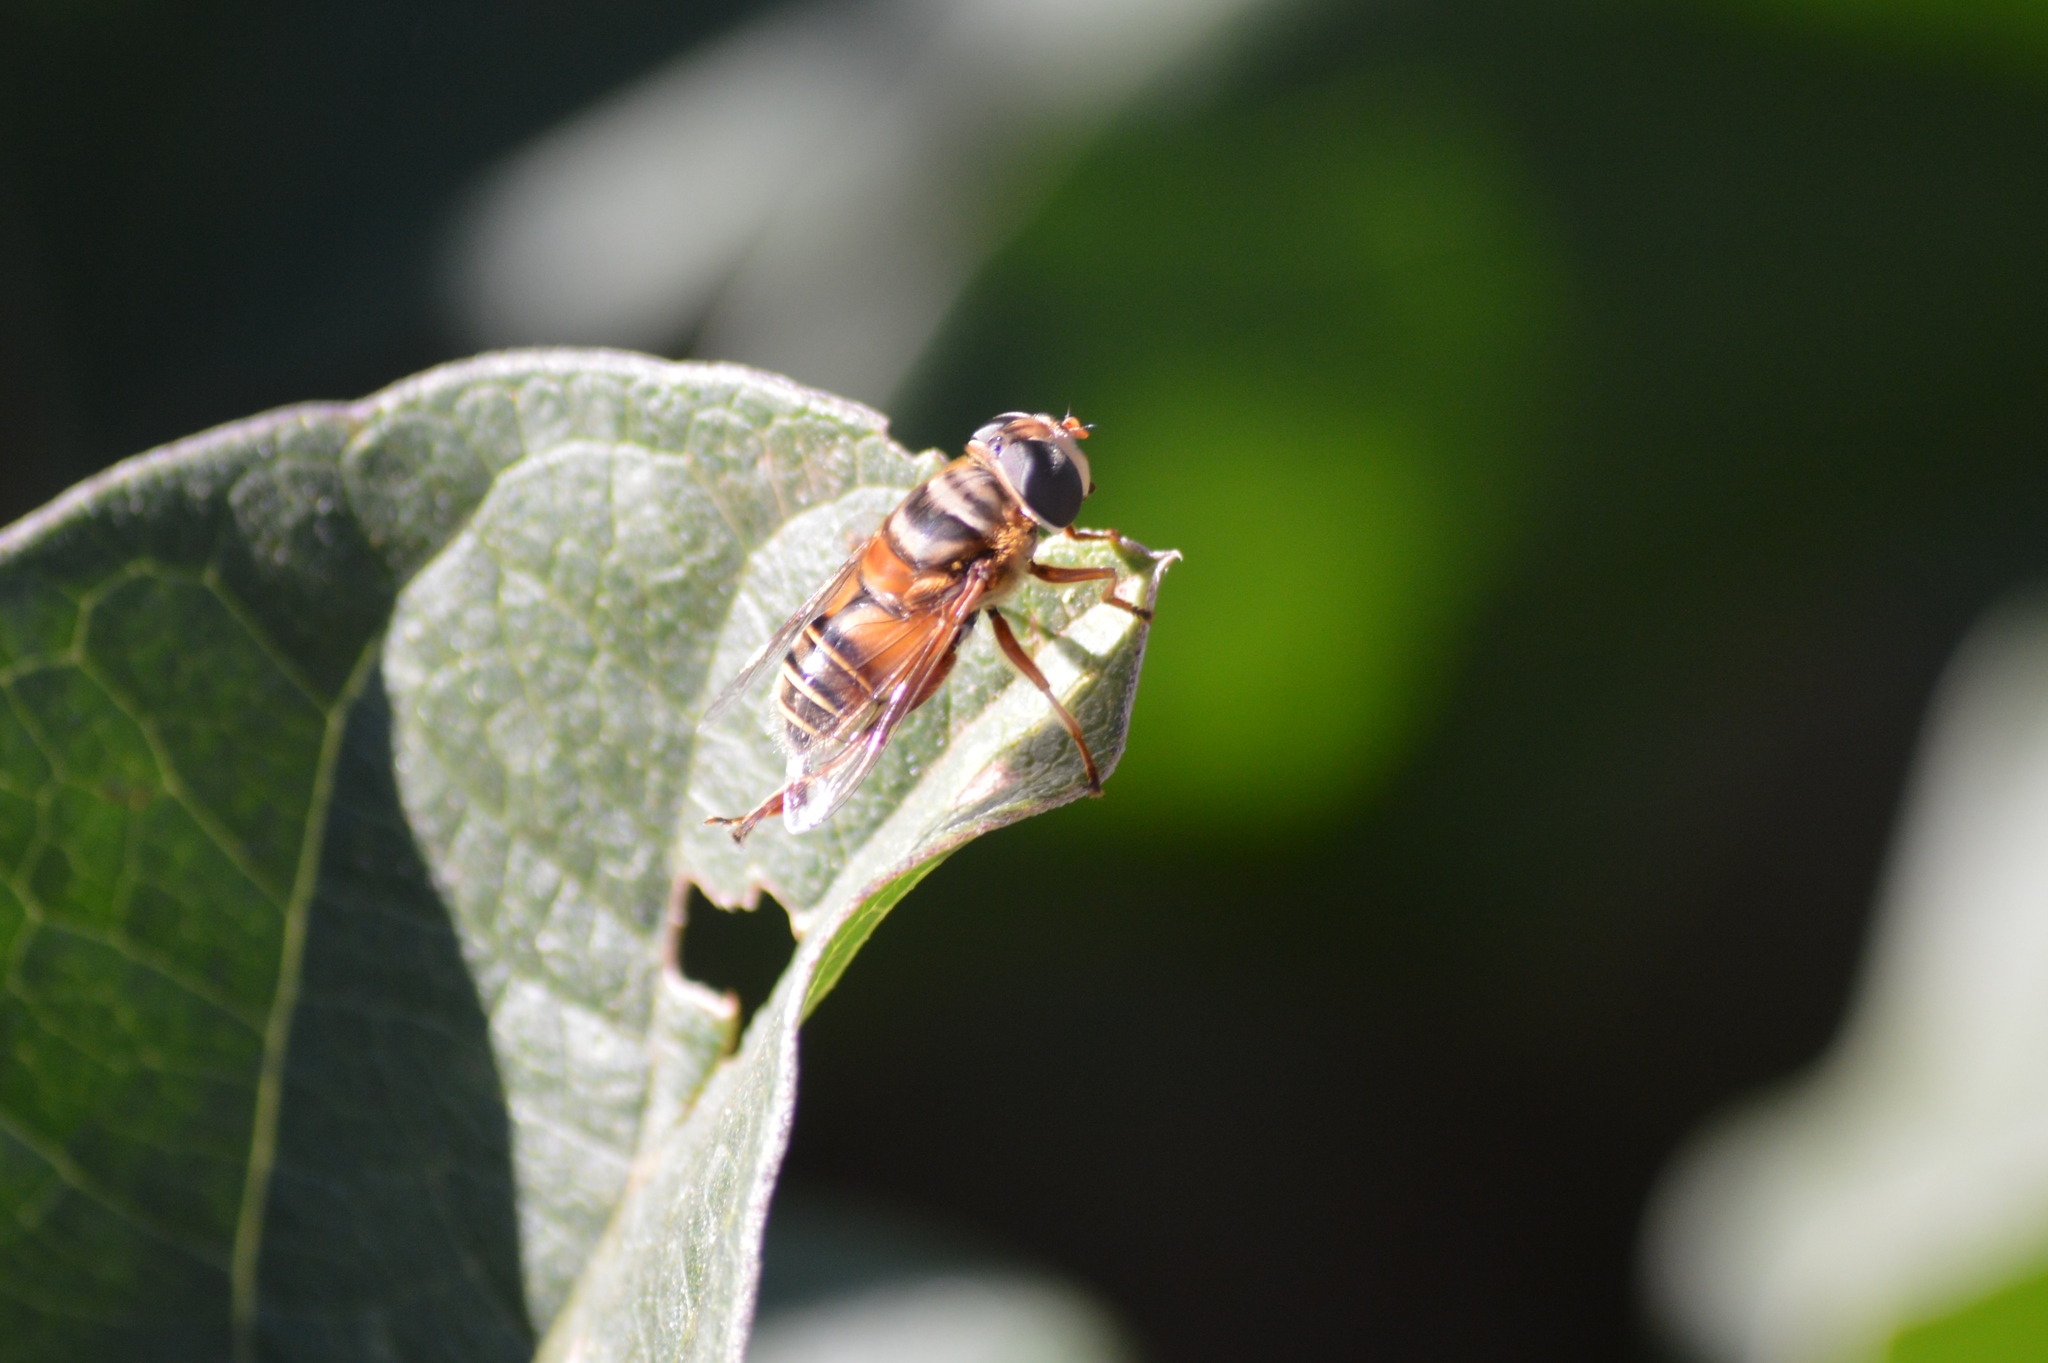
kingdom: Animalia
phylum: Arthropoda
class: Insecta
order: Diptera
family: Syrphidae
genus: Palpada
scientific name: Palpada vinetorum
